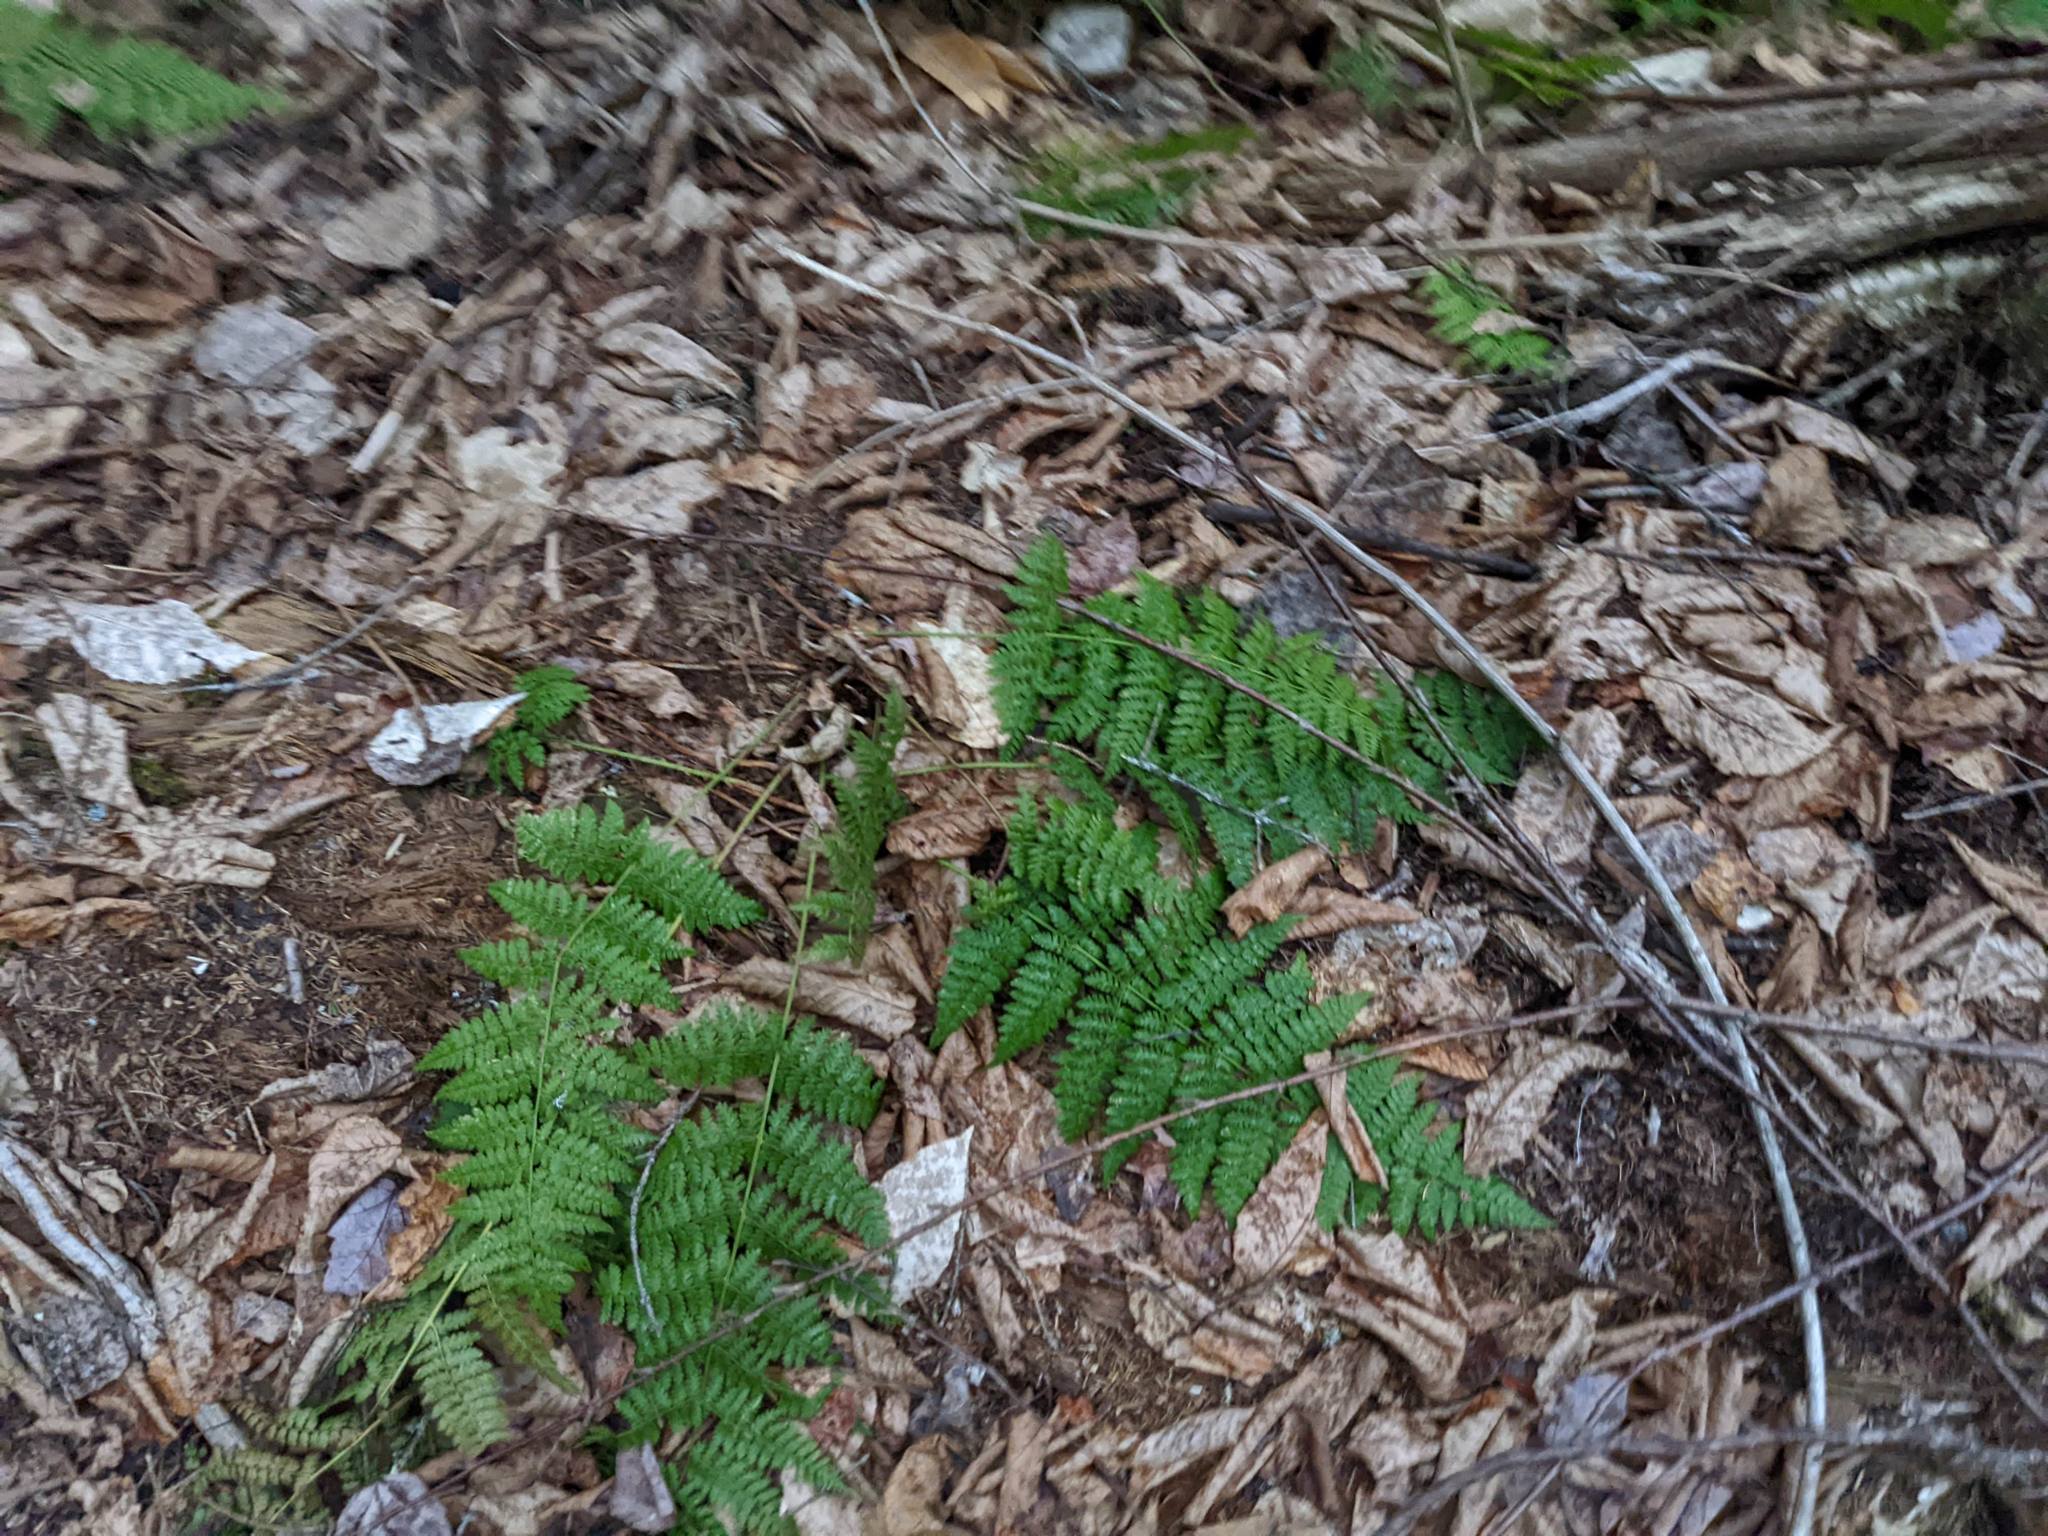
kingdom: Plantae
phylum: Tracheophyta
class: Polypodiopsida
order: Polypodiales
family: Dryopteridaceae
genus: Dryopteris
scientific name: Dryopteris intermedia
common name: Evergreen wood fern
